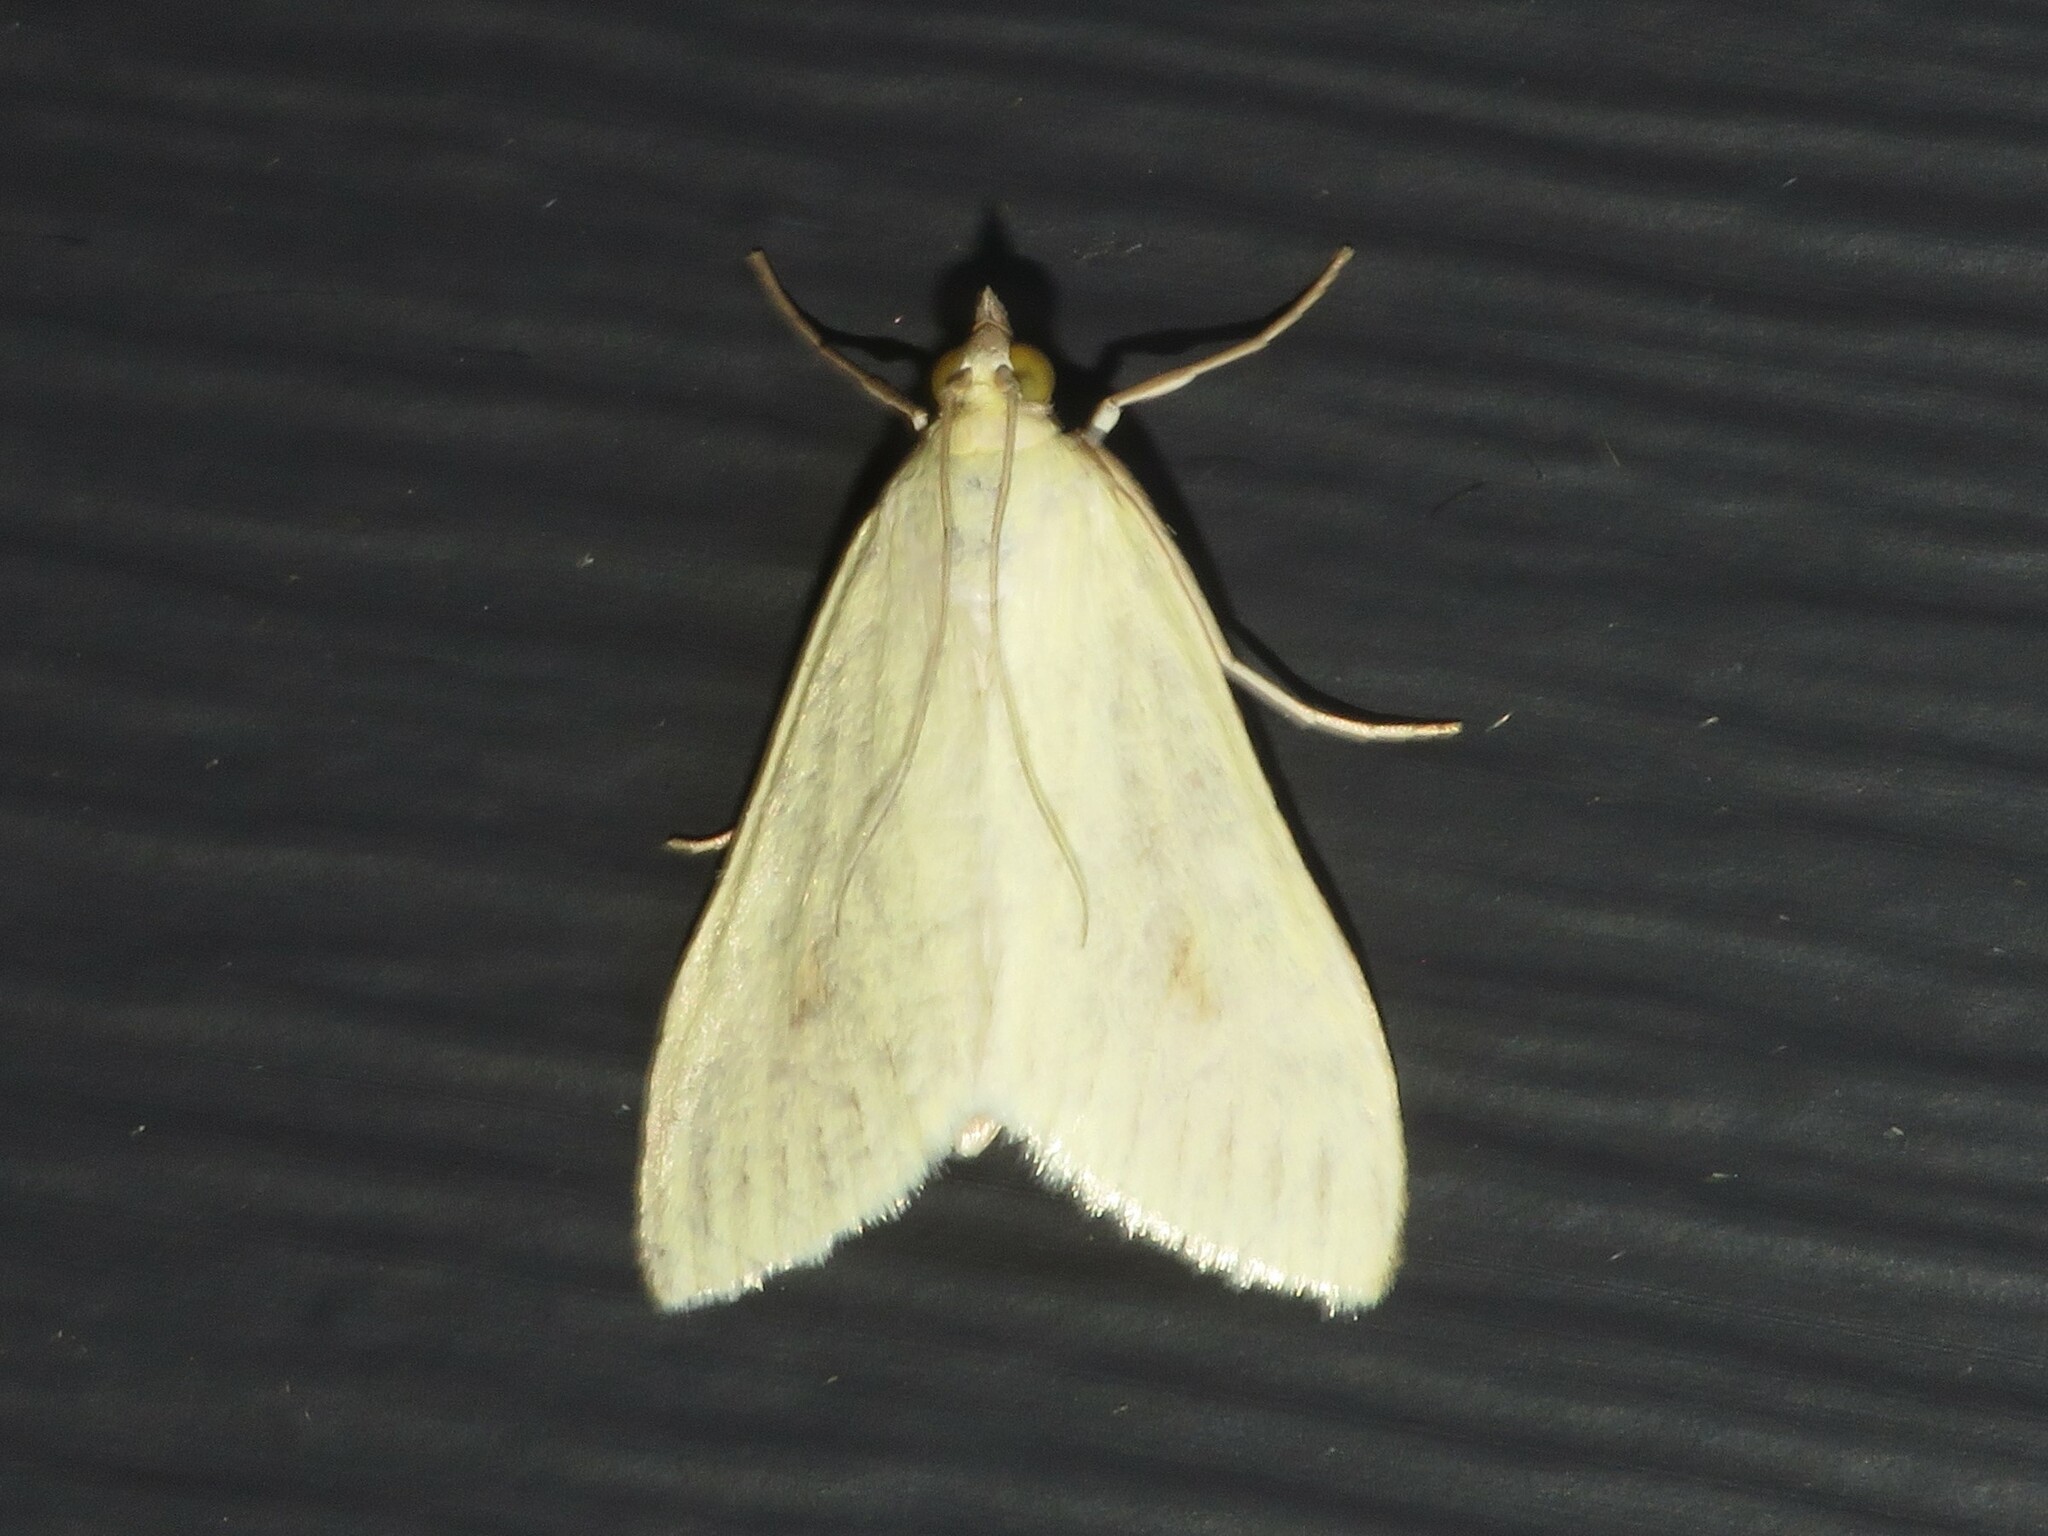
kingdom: Animalia
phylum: Arthropoda
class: Insecta
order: Lepidoptera
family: Crambidae
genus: Sitochroa
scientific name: Sitochroa palealis
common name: Greenish-yellow sitochroa moth
